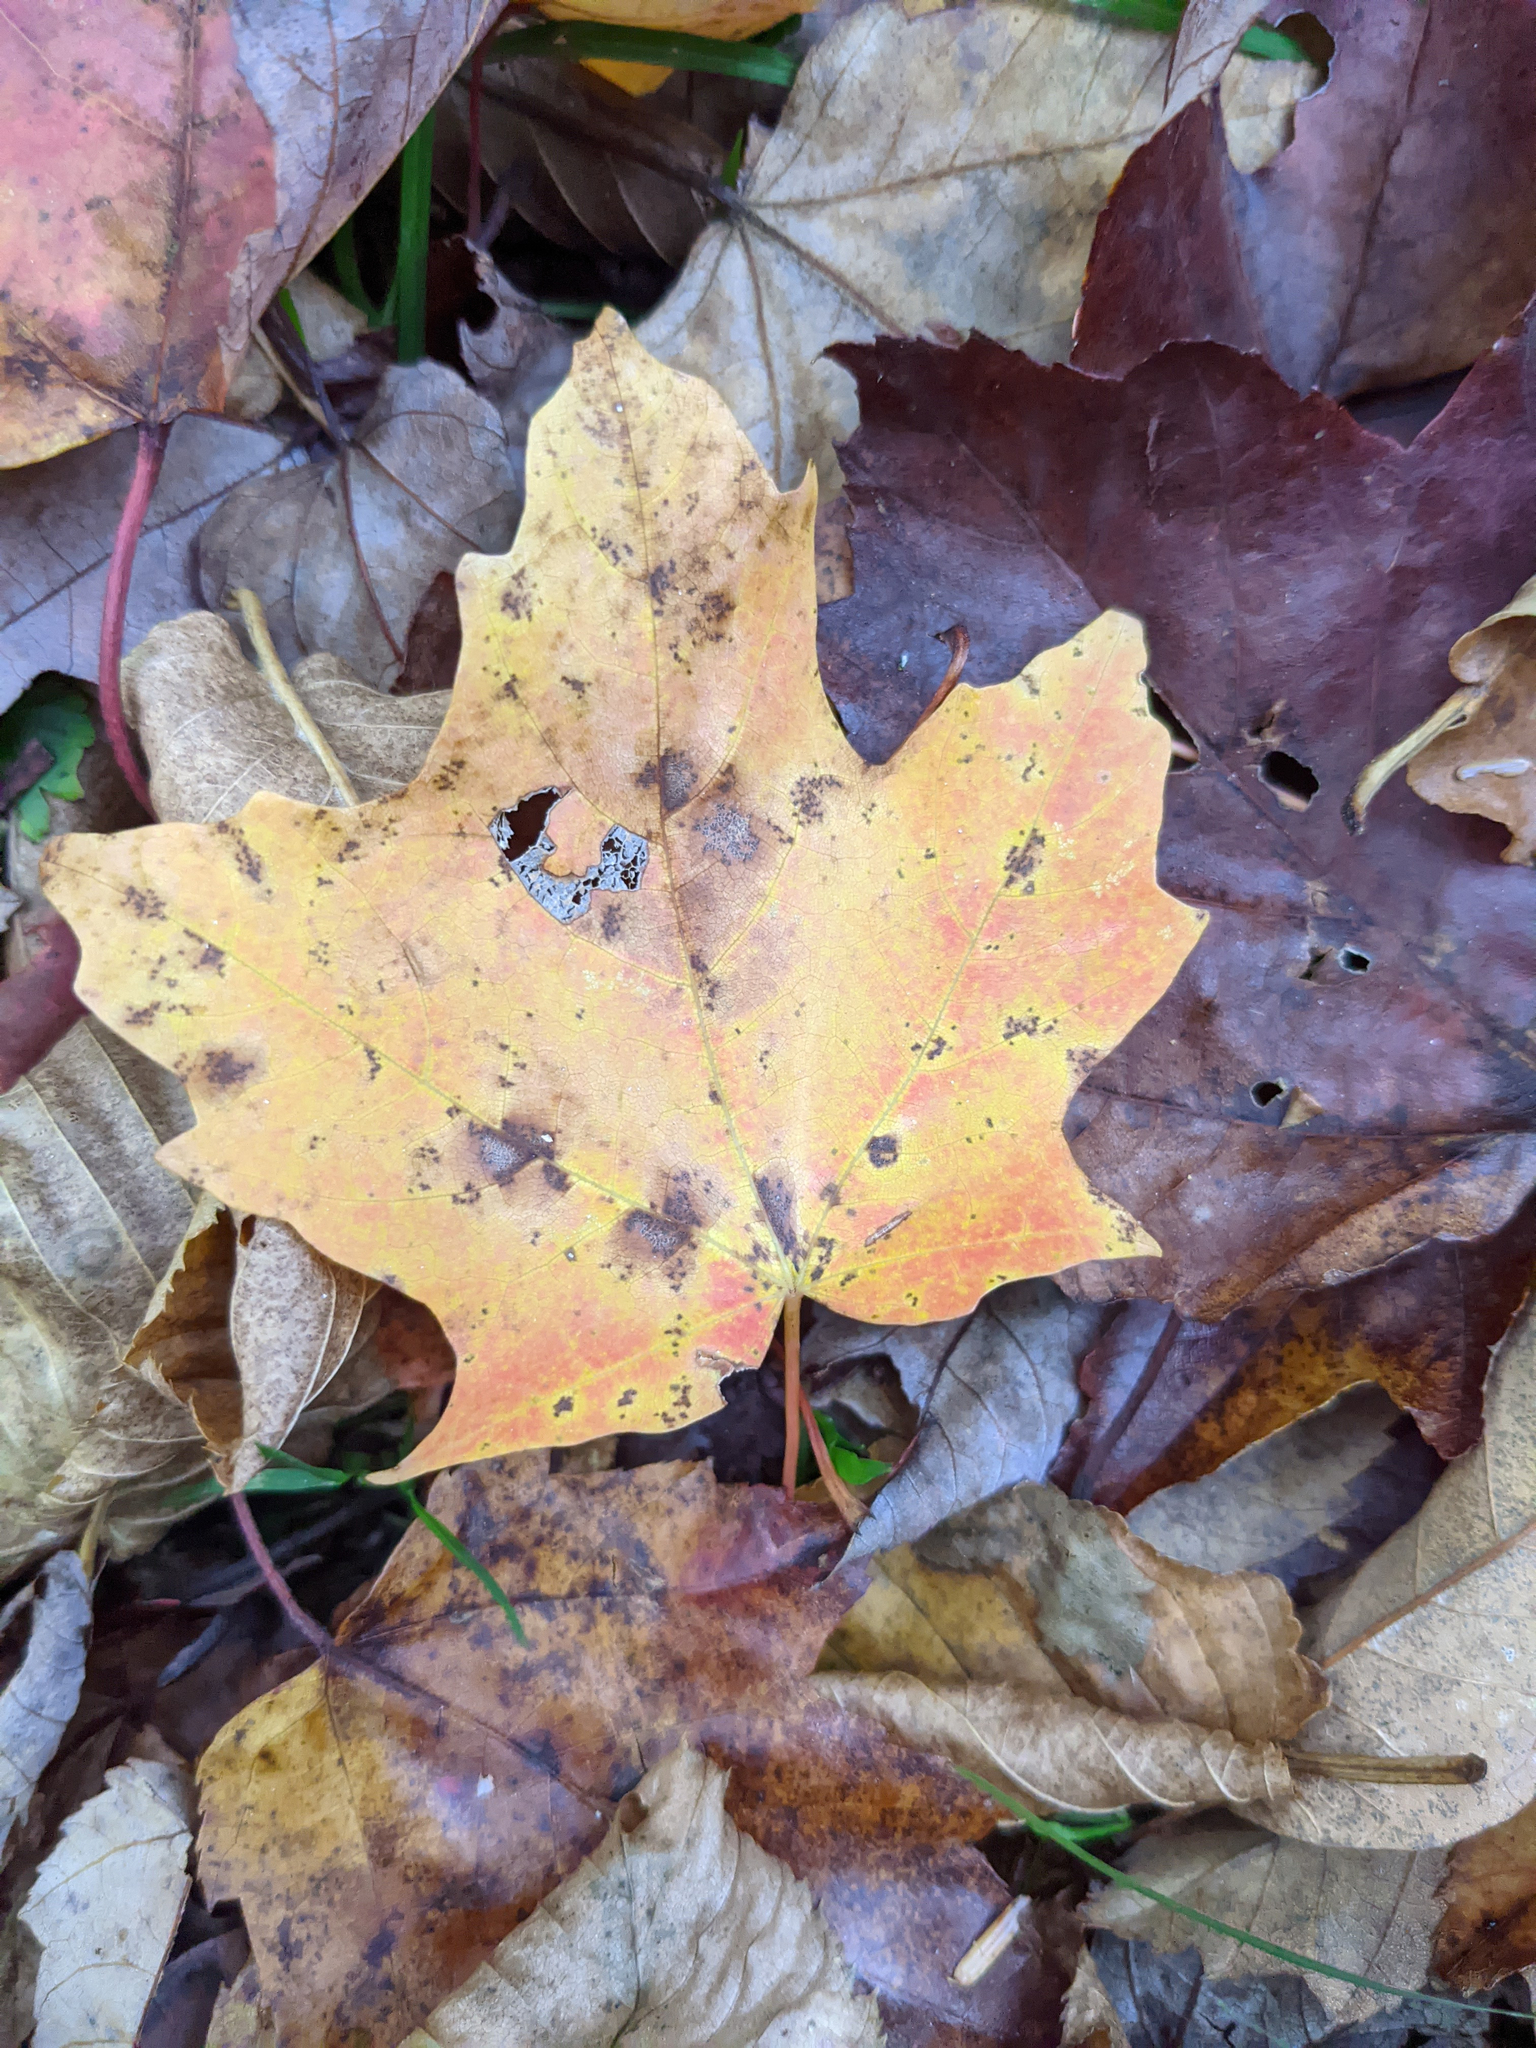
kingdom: Plantae
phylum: Tracheophyta
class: Magnoliopsida
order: Sapindales
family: Sapindaceae
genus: Acer
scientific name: Acer saccharum
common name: Sugar maple
